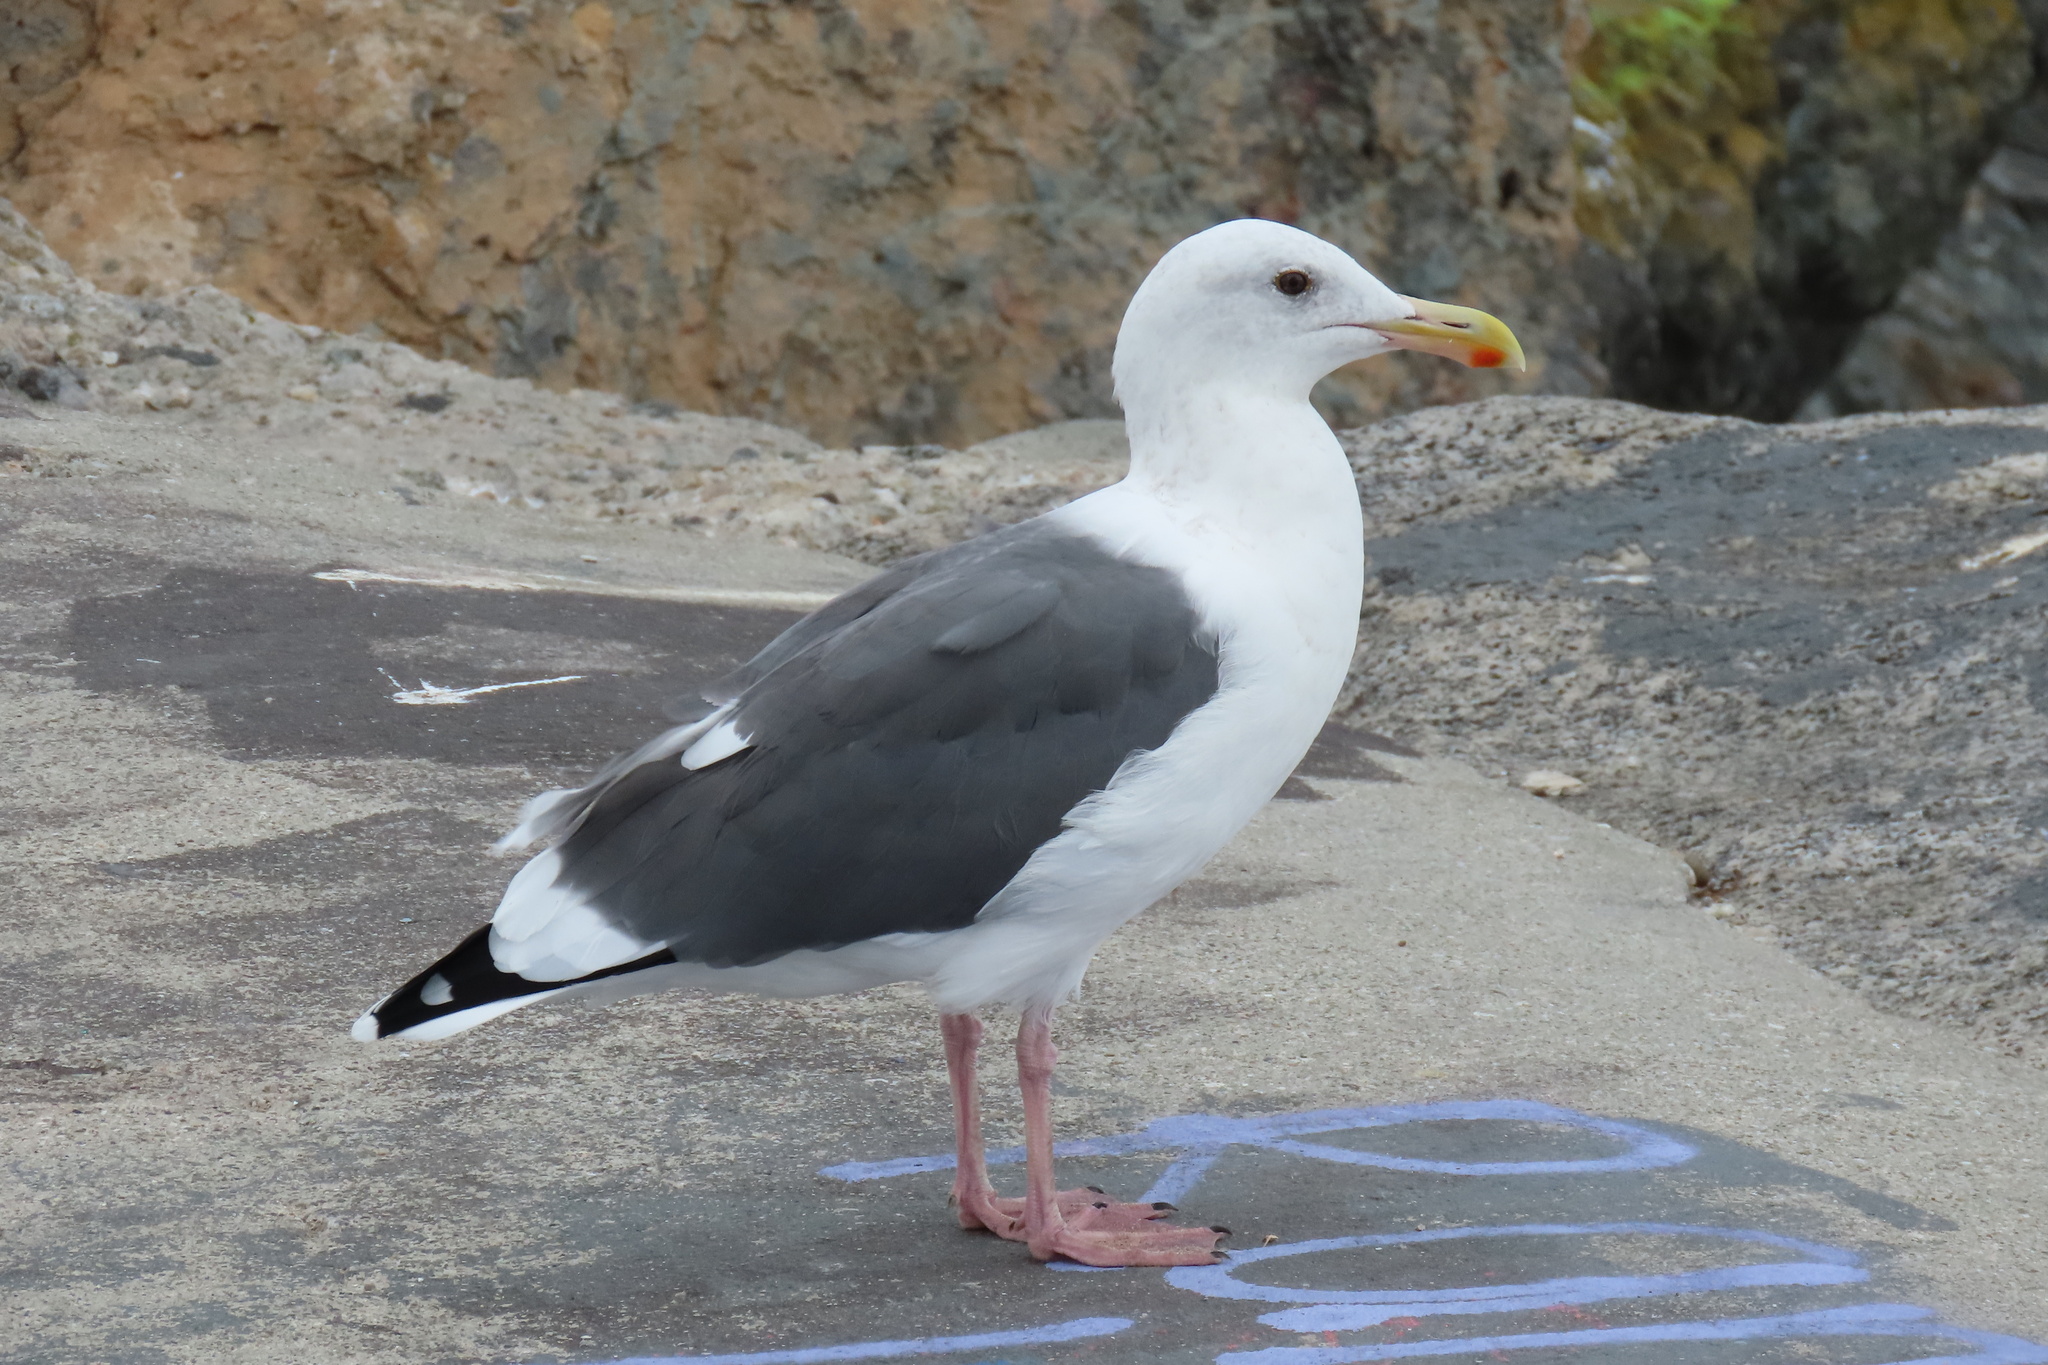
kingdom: Animalia
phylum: Chordata
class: Aves
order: Charadriiformes
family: Laridae
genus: Larus
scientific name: Larus occidentalis
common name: Western gull
